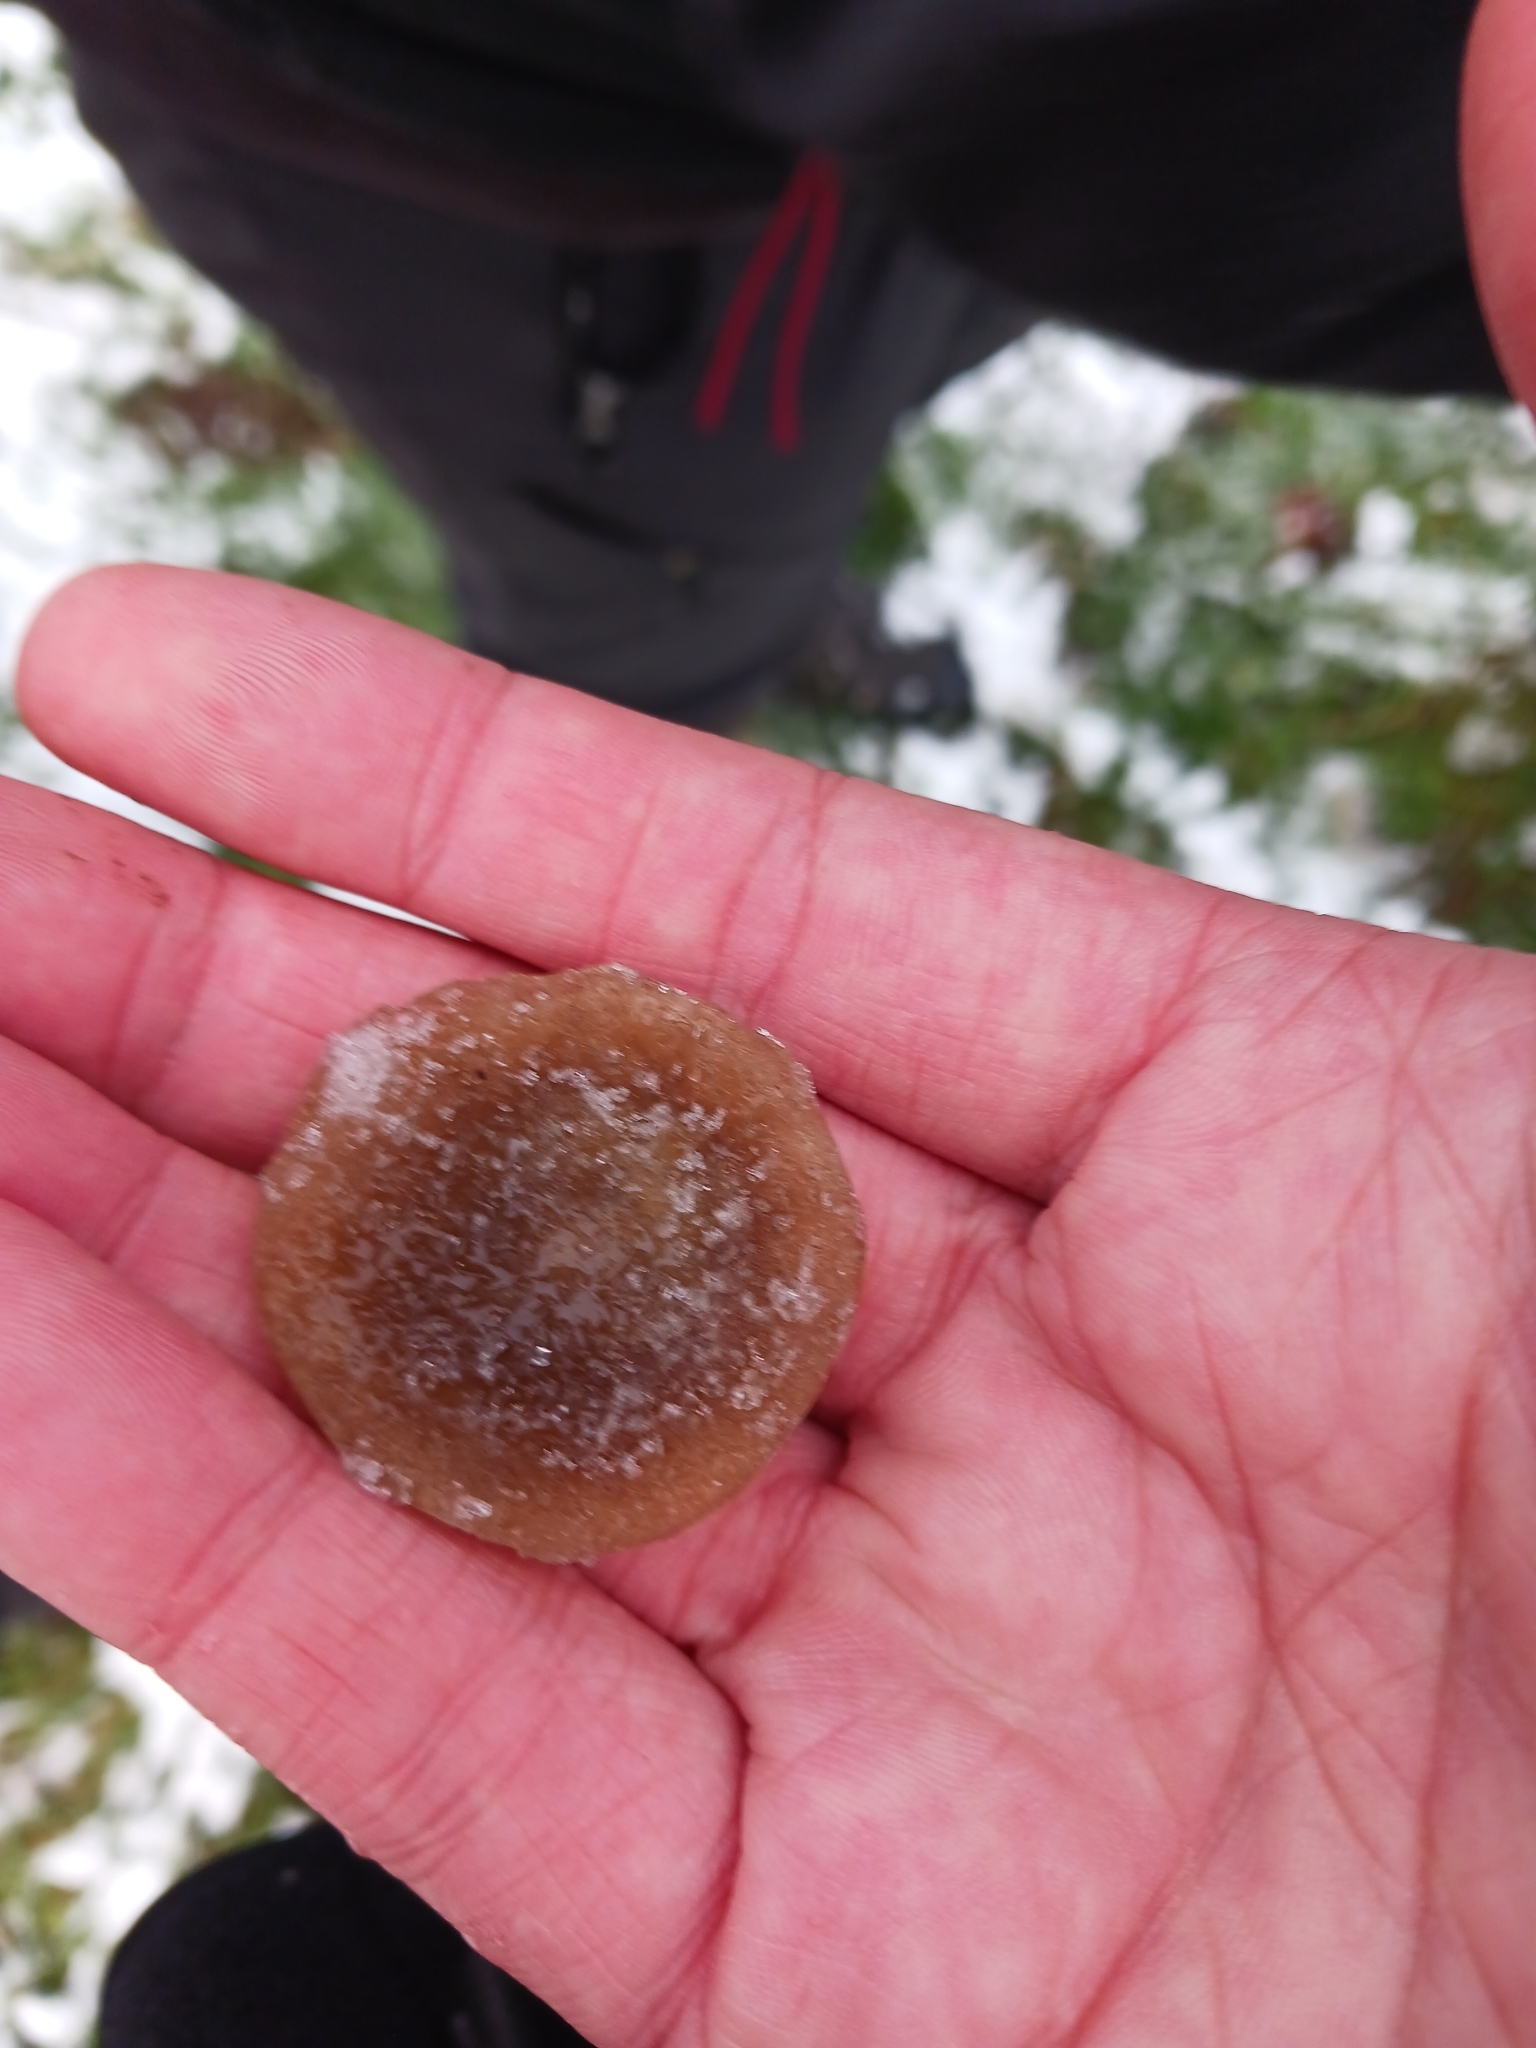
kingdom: Fungi
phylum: Basidiomycota
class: Agaricomycetes
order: Agaricales
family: Tricholomataceae
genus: Melanoleuca
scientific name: Melanoleuca polioleuca
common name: Common cavalier
